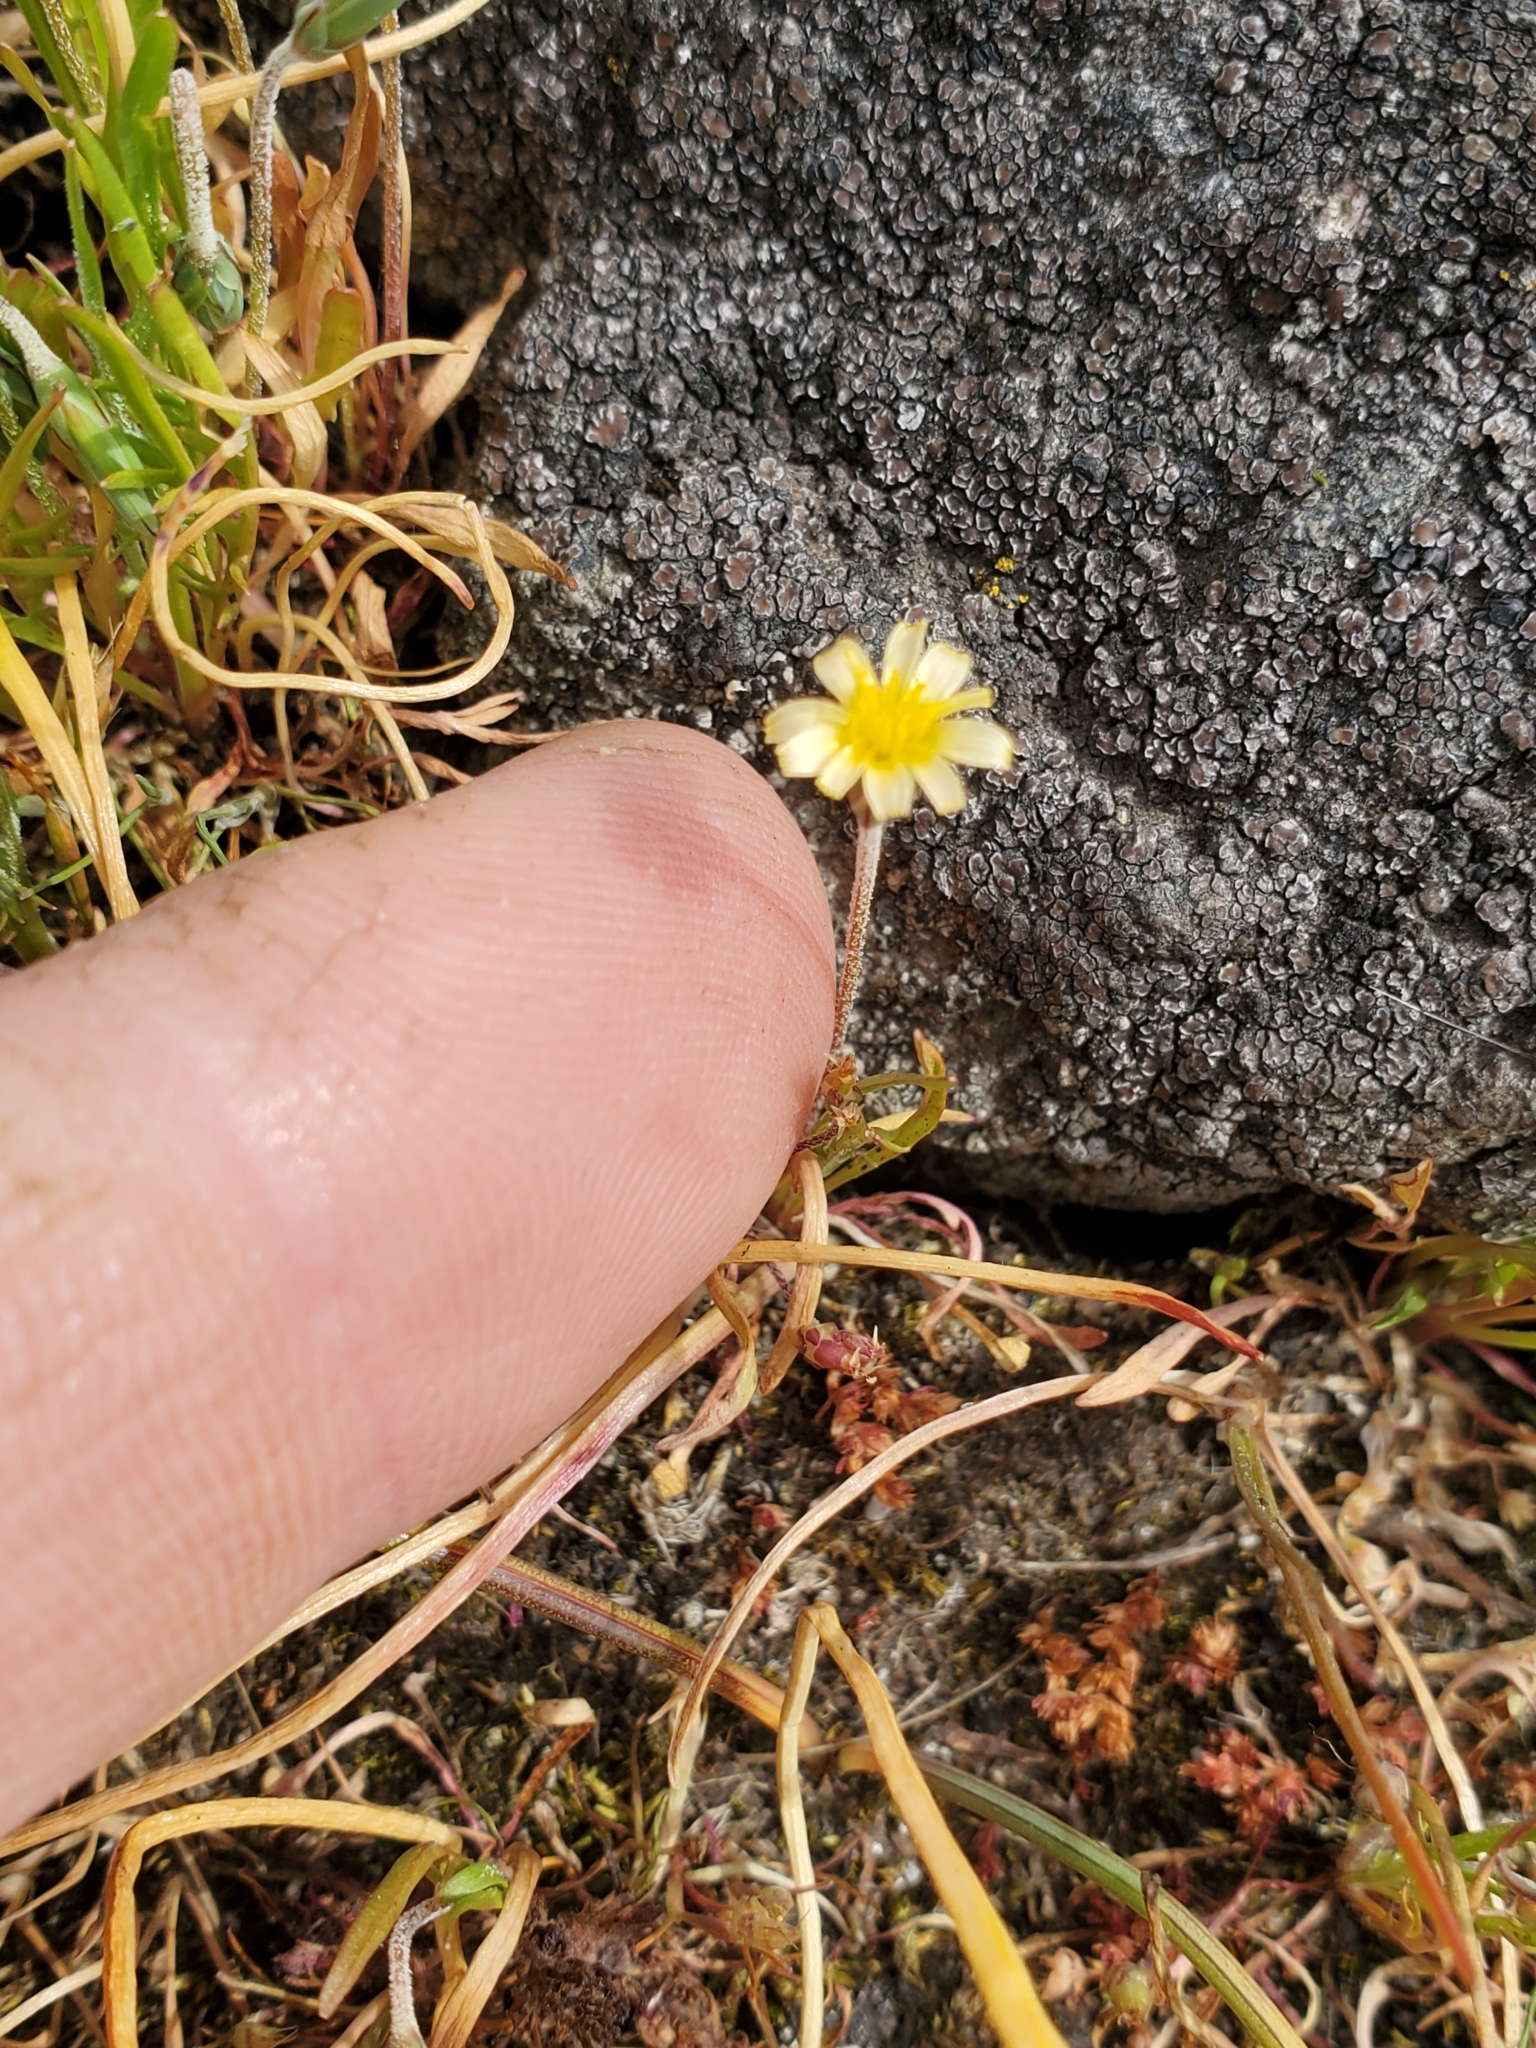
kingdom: Plantae
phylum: Tracheophyta
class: Magnoliopsida
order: Asterales
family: Asteraceae
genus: Microseris
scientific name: Microseris bigelovii
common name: Coast microseris
